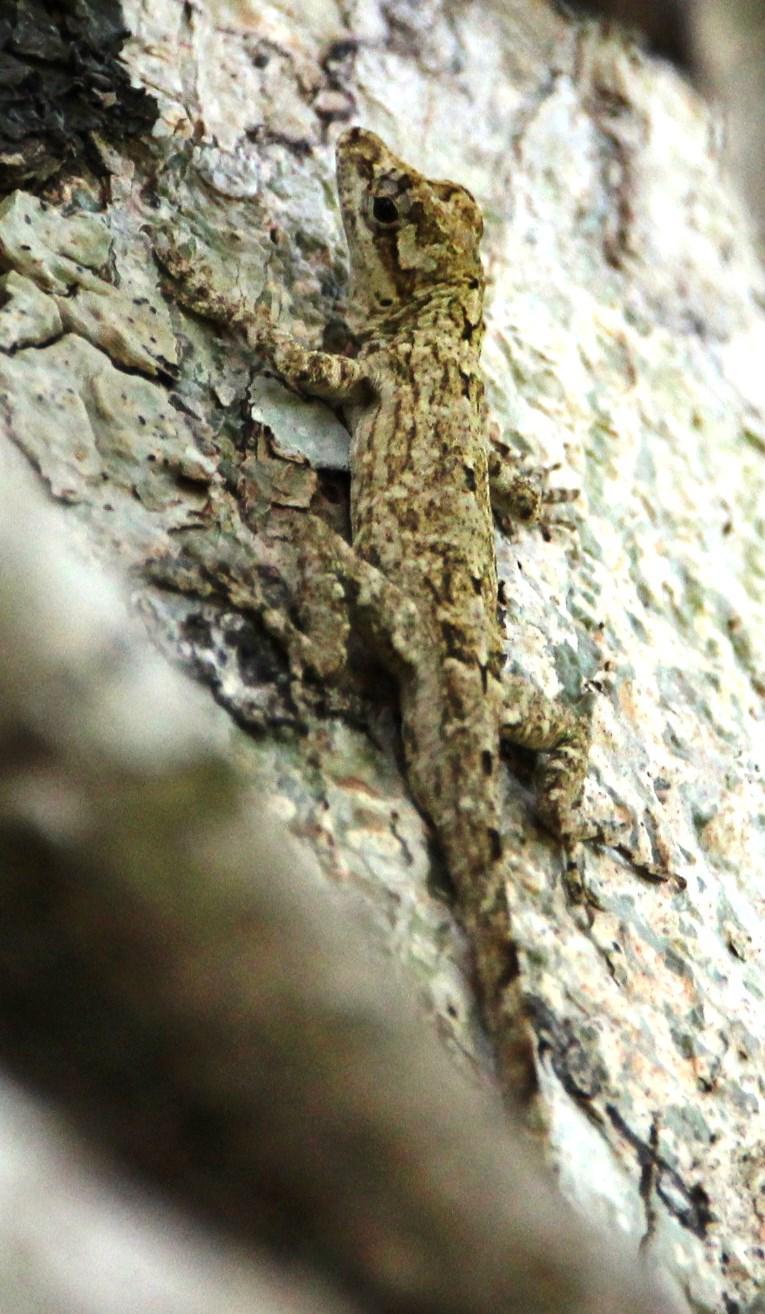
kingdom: Animalia
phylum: Chordata
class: Squamata
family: Dactyloidae
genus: Anolis
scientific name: Anolis ortonii
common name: Bark anole
